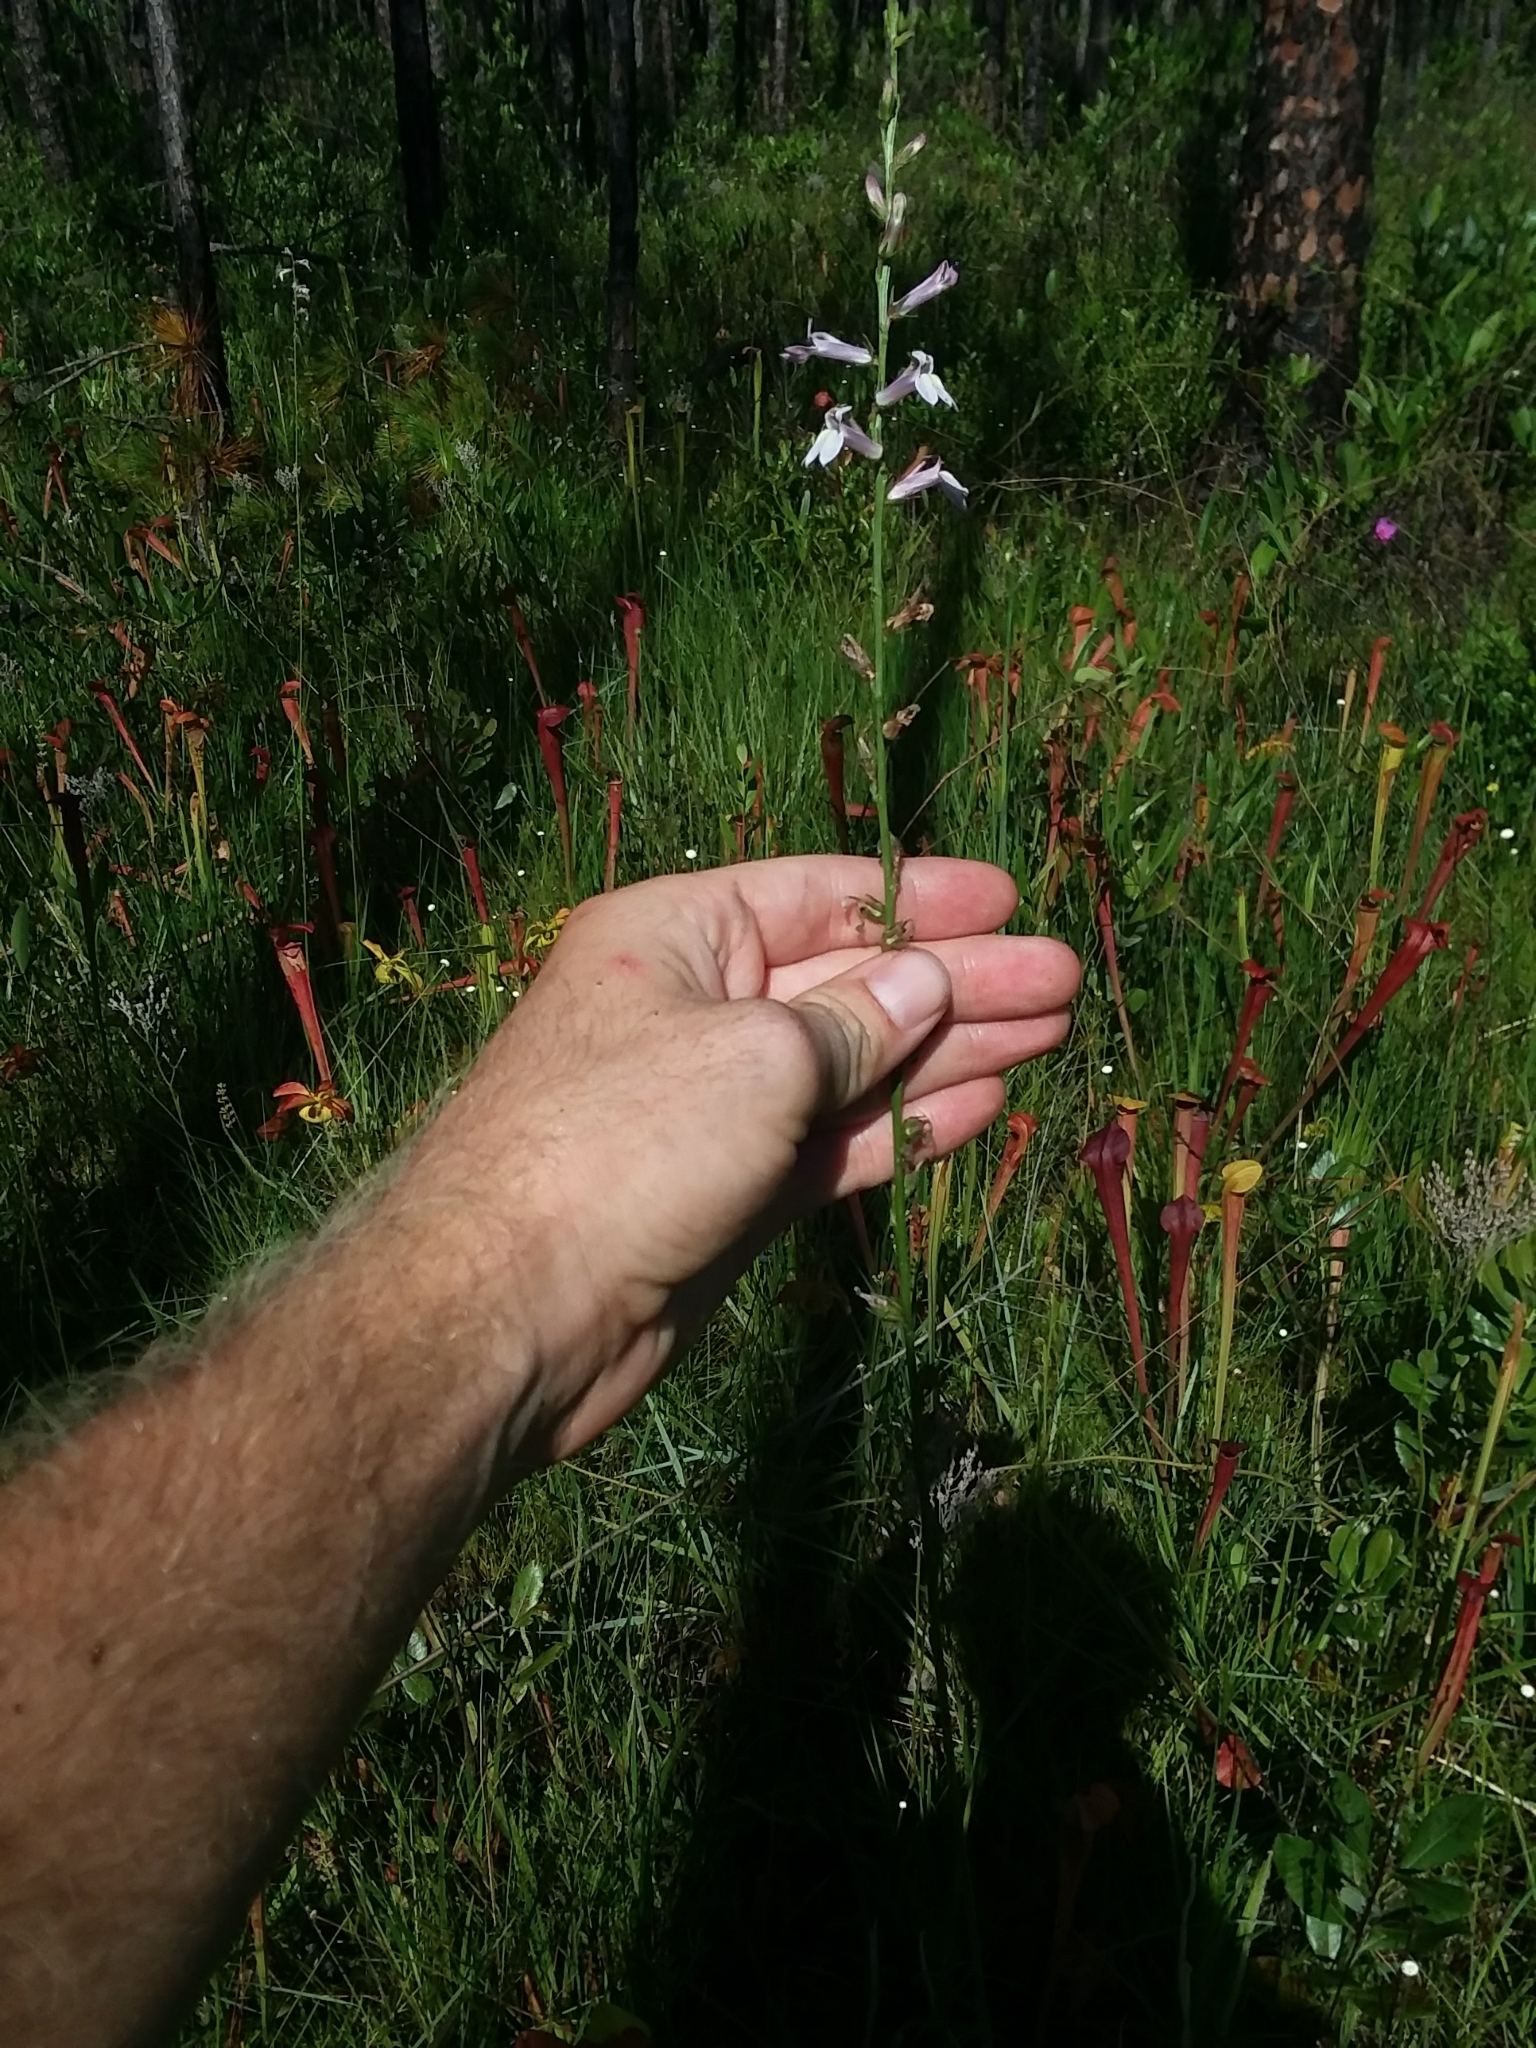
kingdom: Plantae
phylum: Tracheophyta
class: Magnoliopsida
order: Asterales
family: Campanulaceae
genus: Lobelia
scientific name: Lobelia floridana
